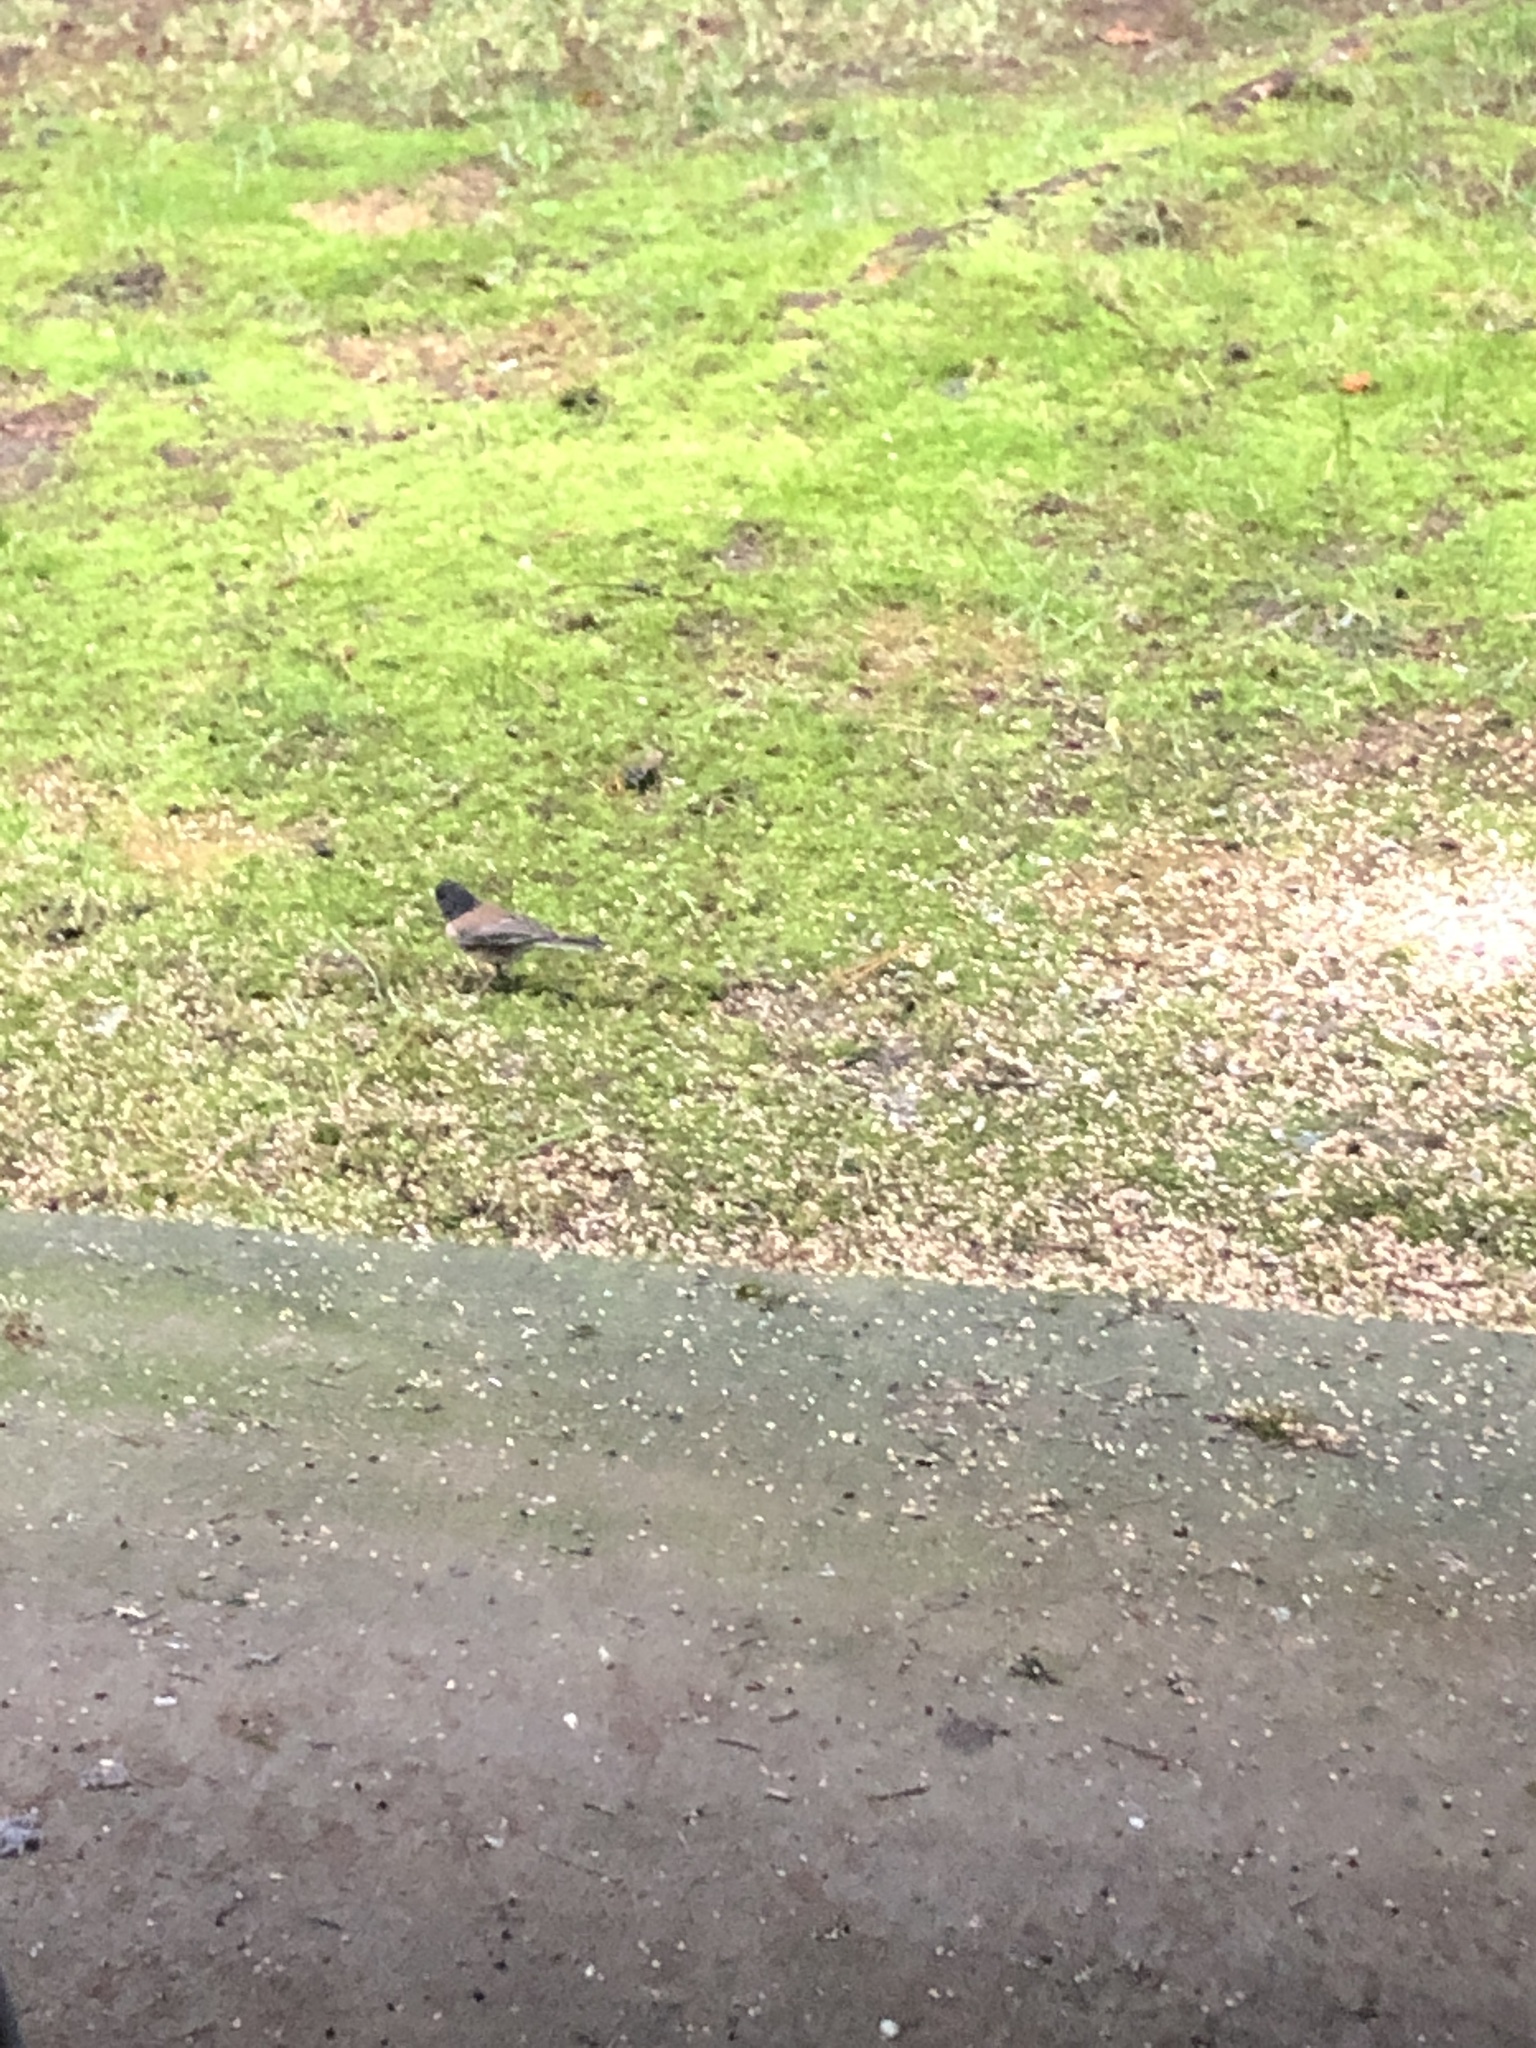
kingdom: Animalia
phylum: Chordata
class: Aves
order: Passeriformes
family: Passerellidae
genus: Junco
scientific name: Junco hyemalis
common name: Dark-eyed junco
